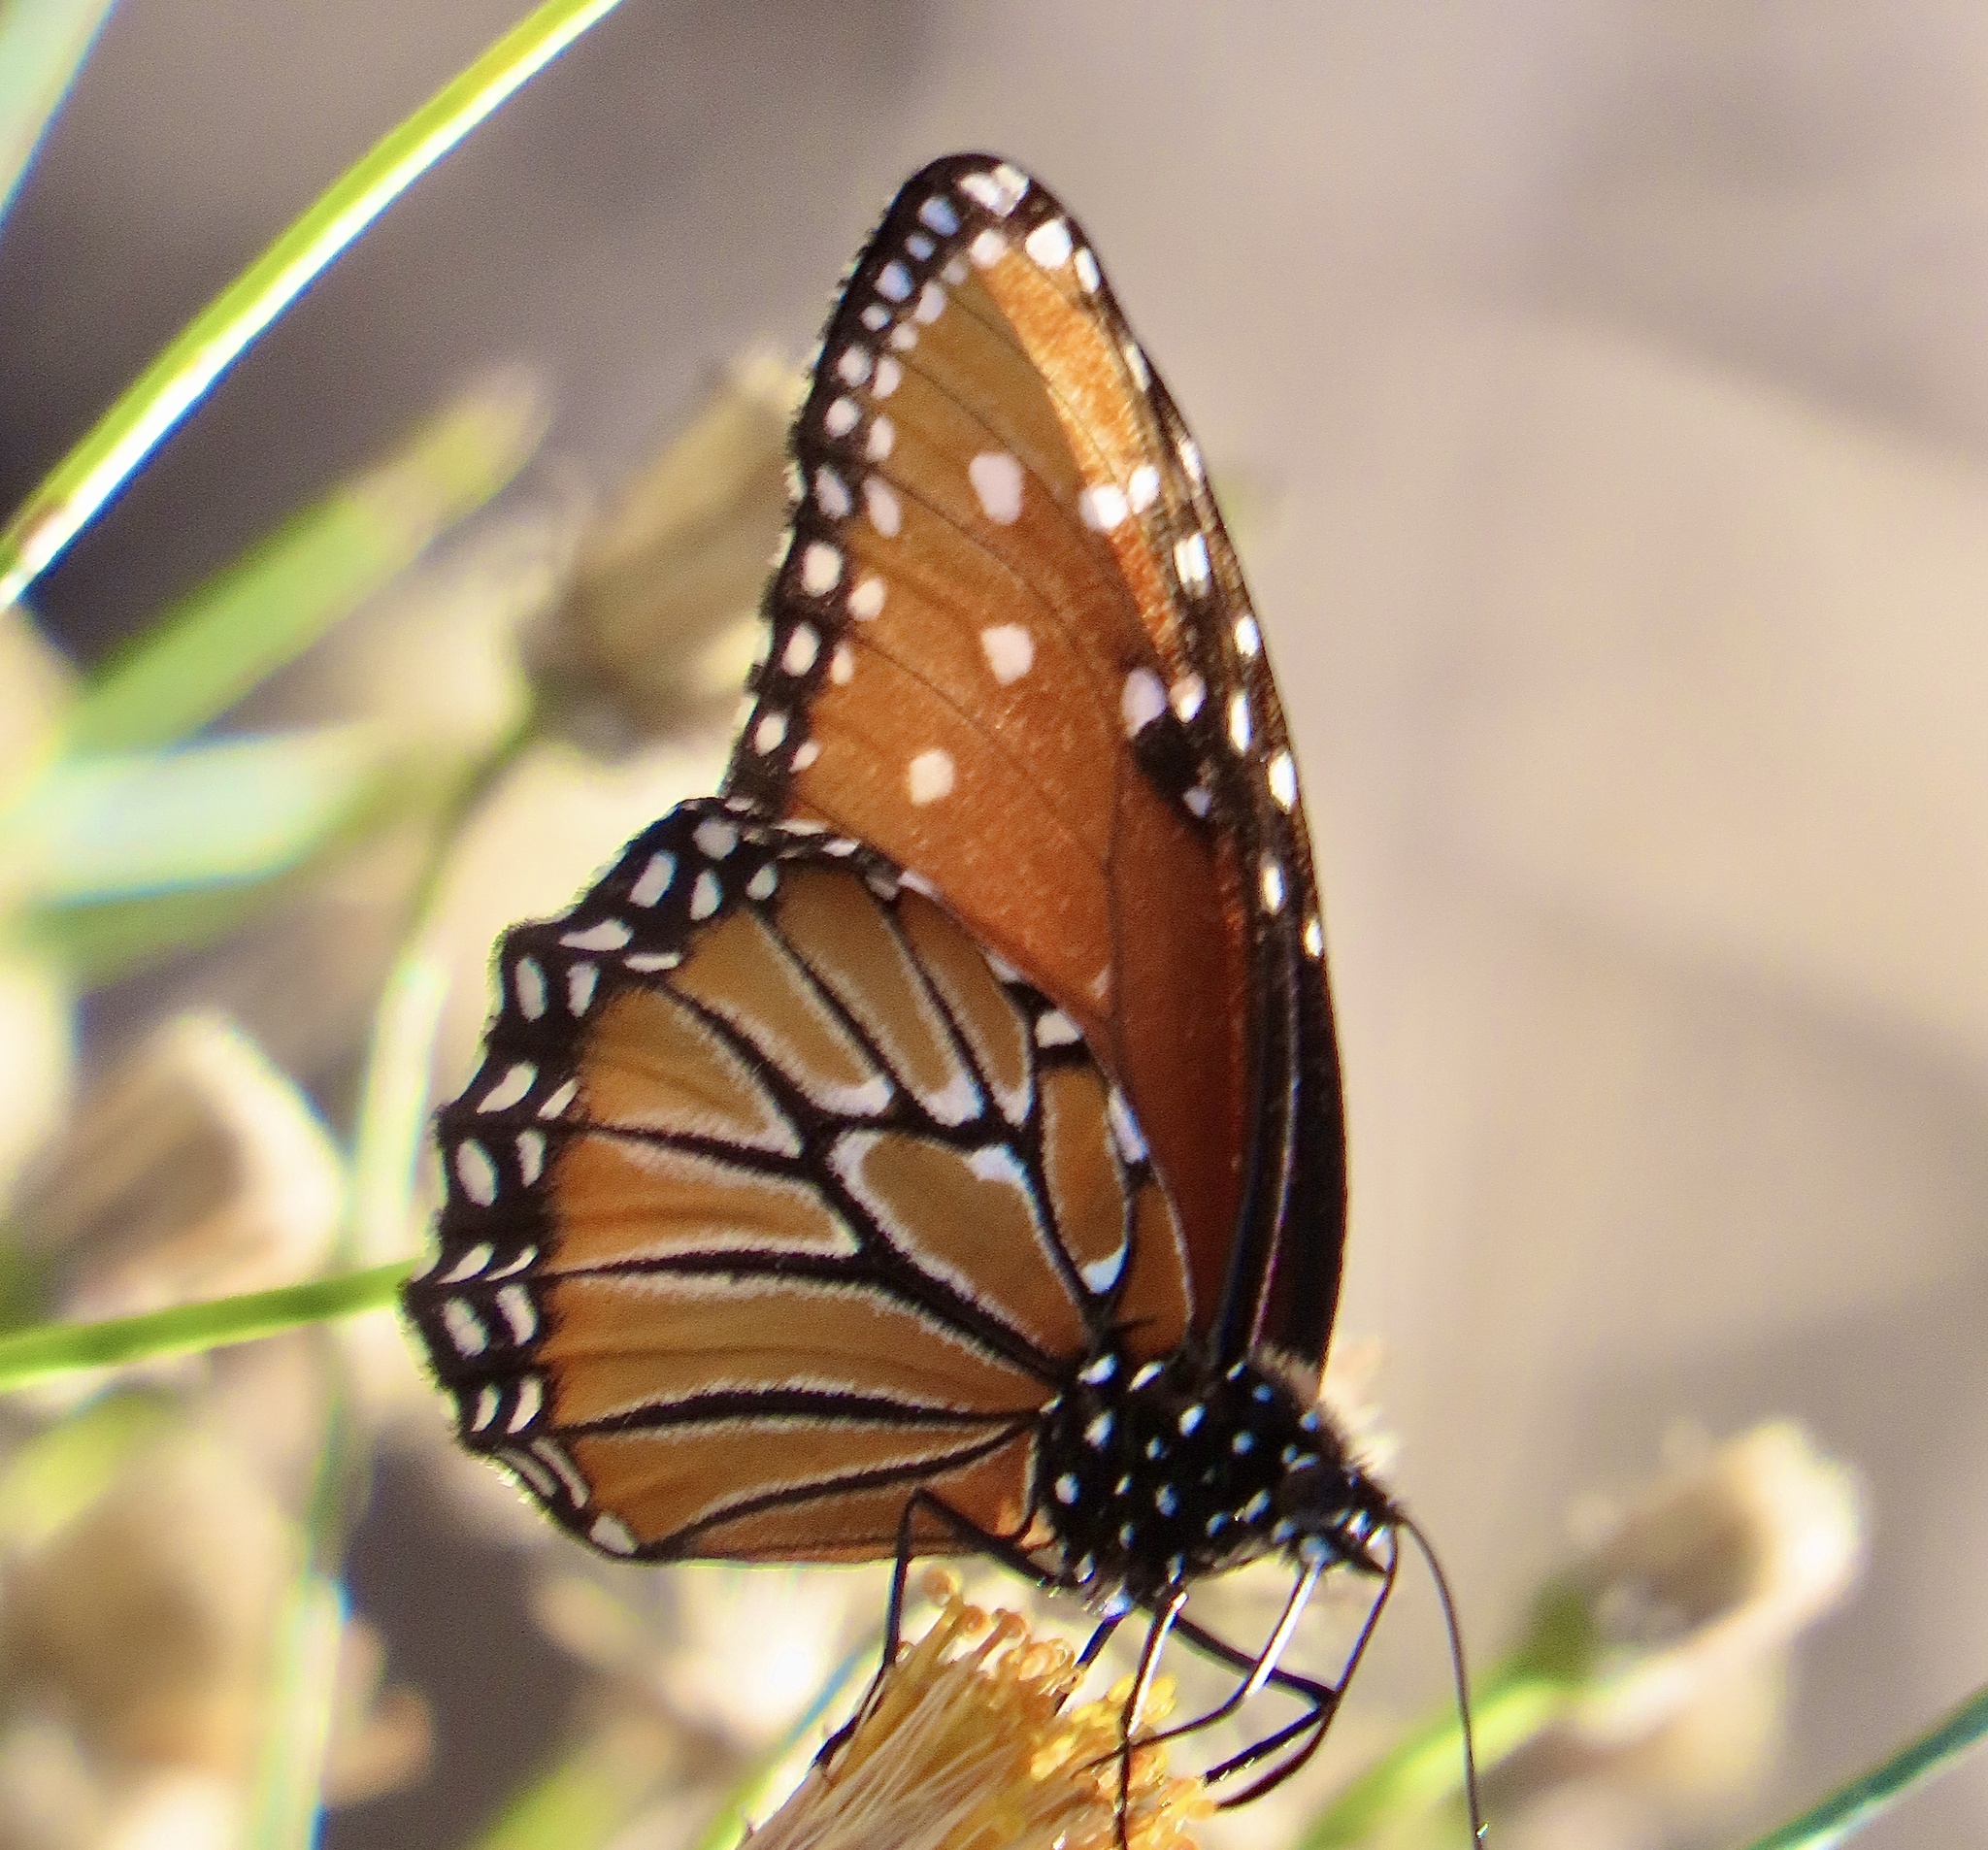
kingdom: Animalia
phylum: Arthropoda
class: Insecta
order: Lepidoptera
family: Nymphalidae
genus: Danaus
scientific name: Danaus gilippus
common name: Queen
